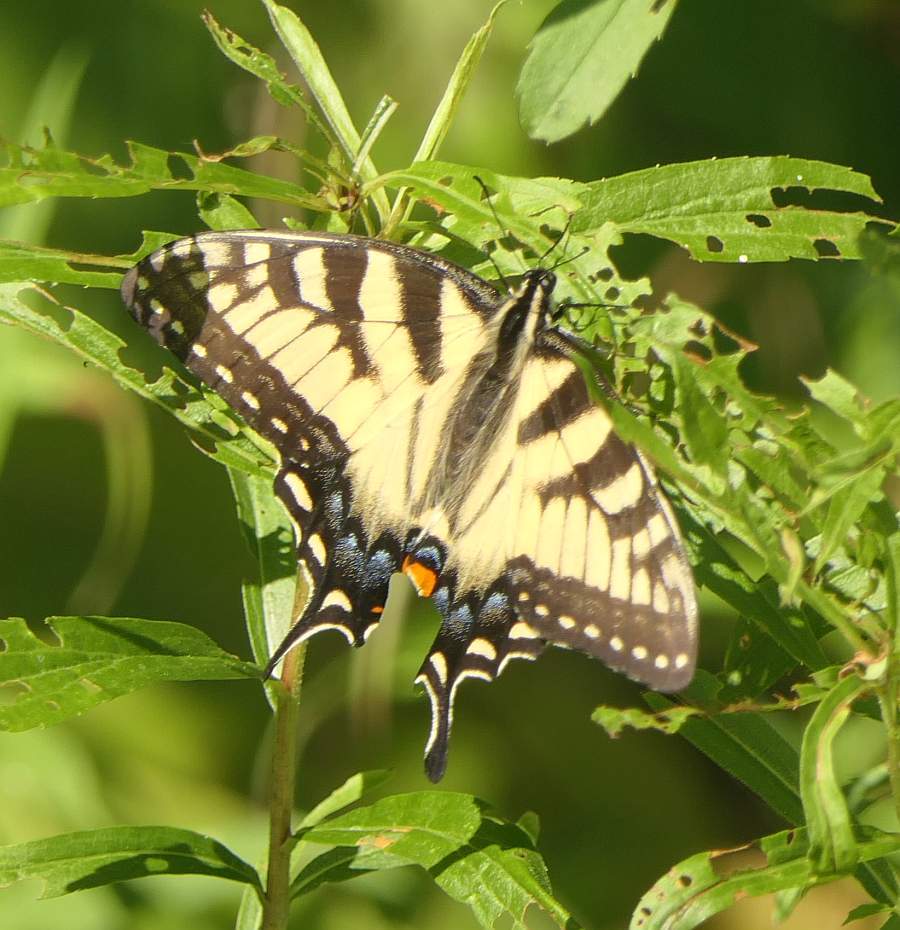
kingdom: Animalia
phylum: Arthropoda
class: Insecta
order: Lepidoptera
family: Papilionidae
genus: Papilio
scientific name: Papilio
